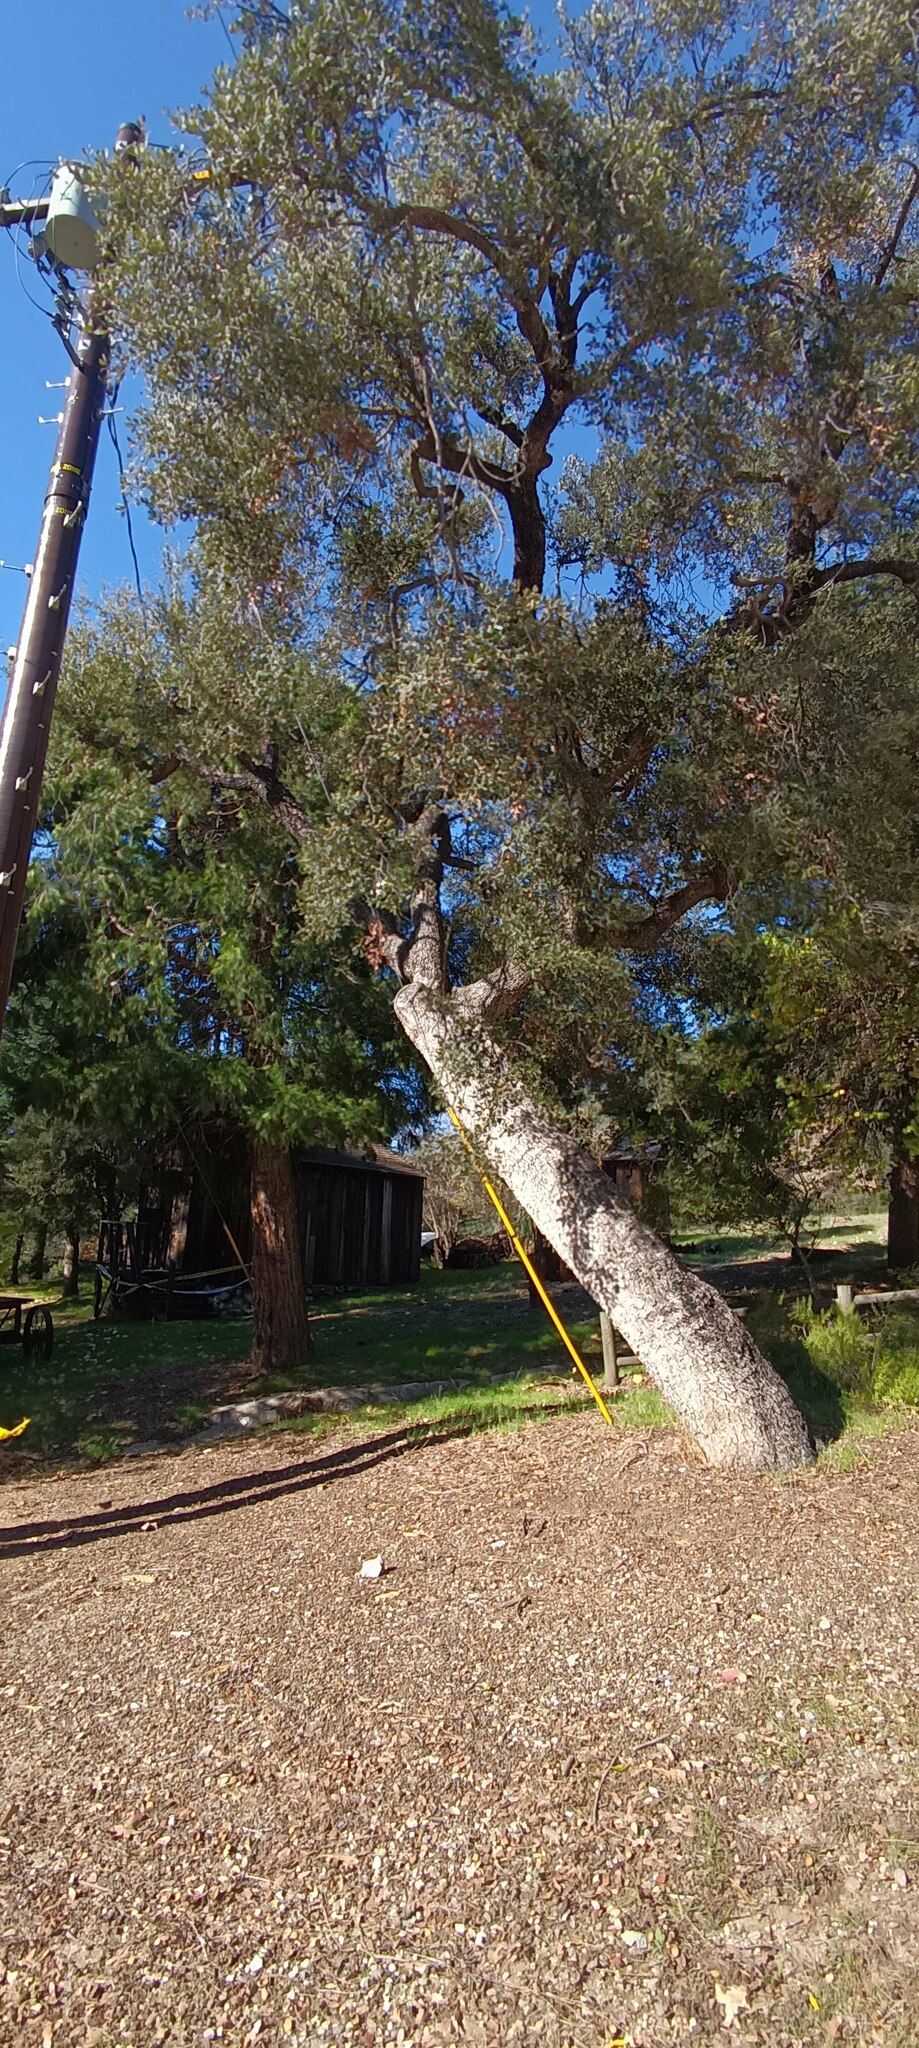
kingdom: Plantae
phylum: Tracheophyta
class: Magnoliopsida
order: Fagales
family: Fagaceae
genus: Quercus
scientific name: Quercus engelmannii
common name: Engelmann oak
